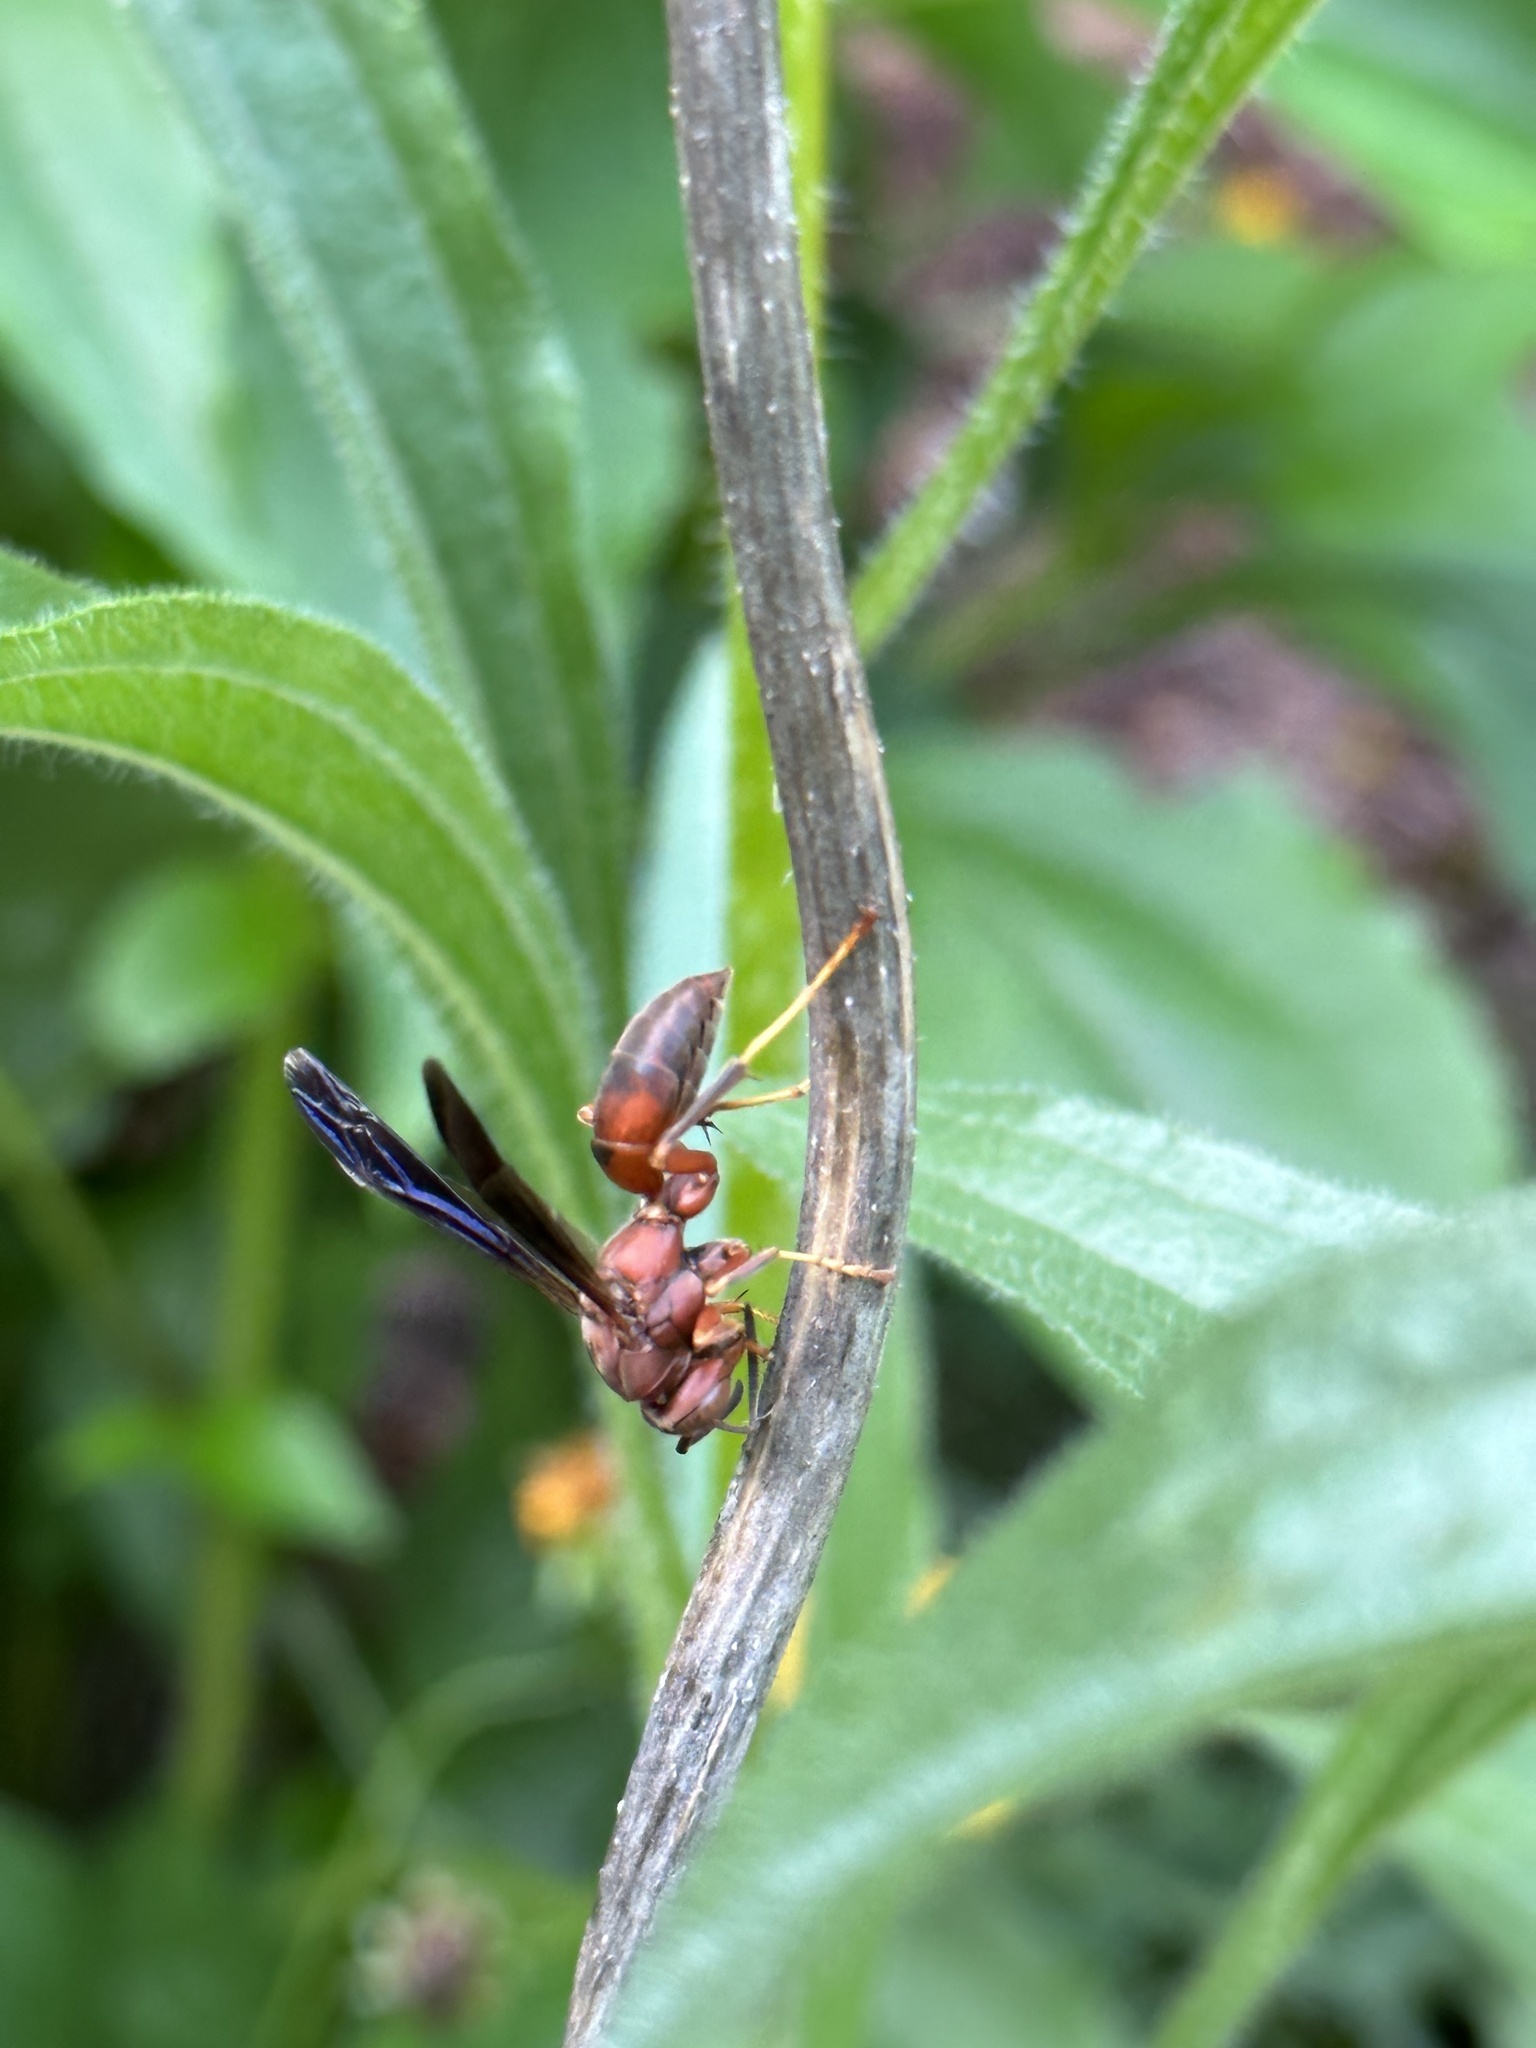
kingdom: Animalia
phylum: Arthropoda
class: Insecta
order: Hymenoptera
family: Eumenidae
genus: Polistes
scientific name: Polistes metricus
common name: Metric paper wasp
